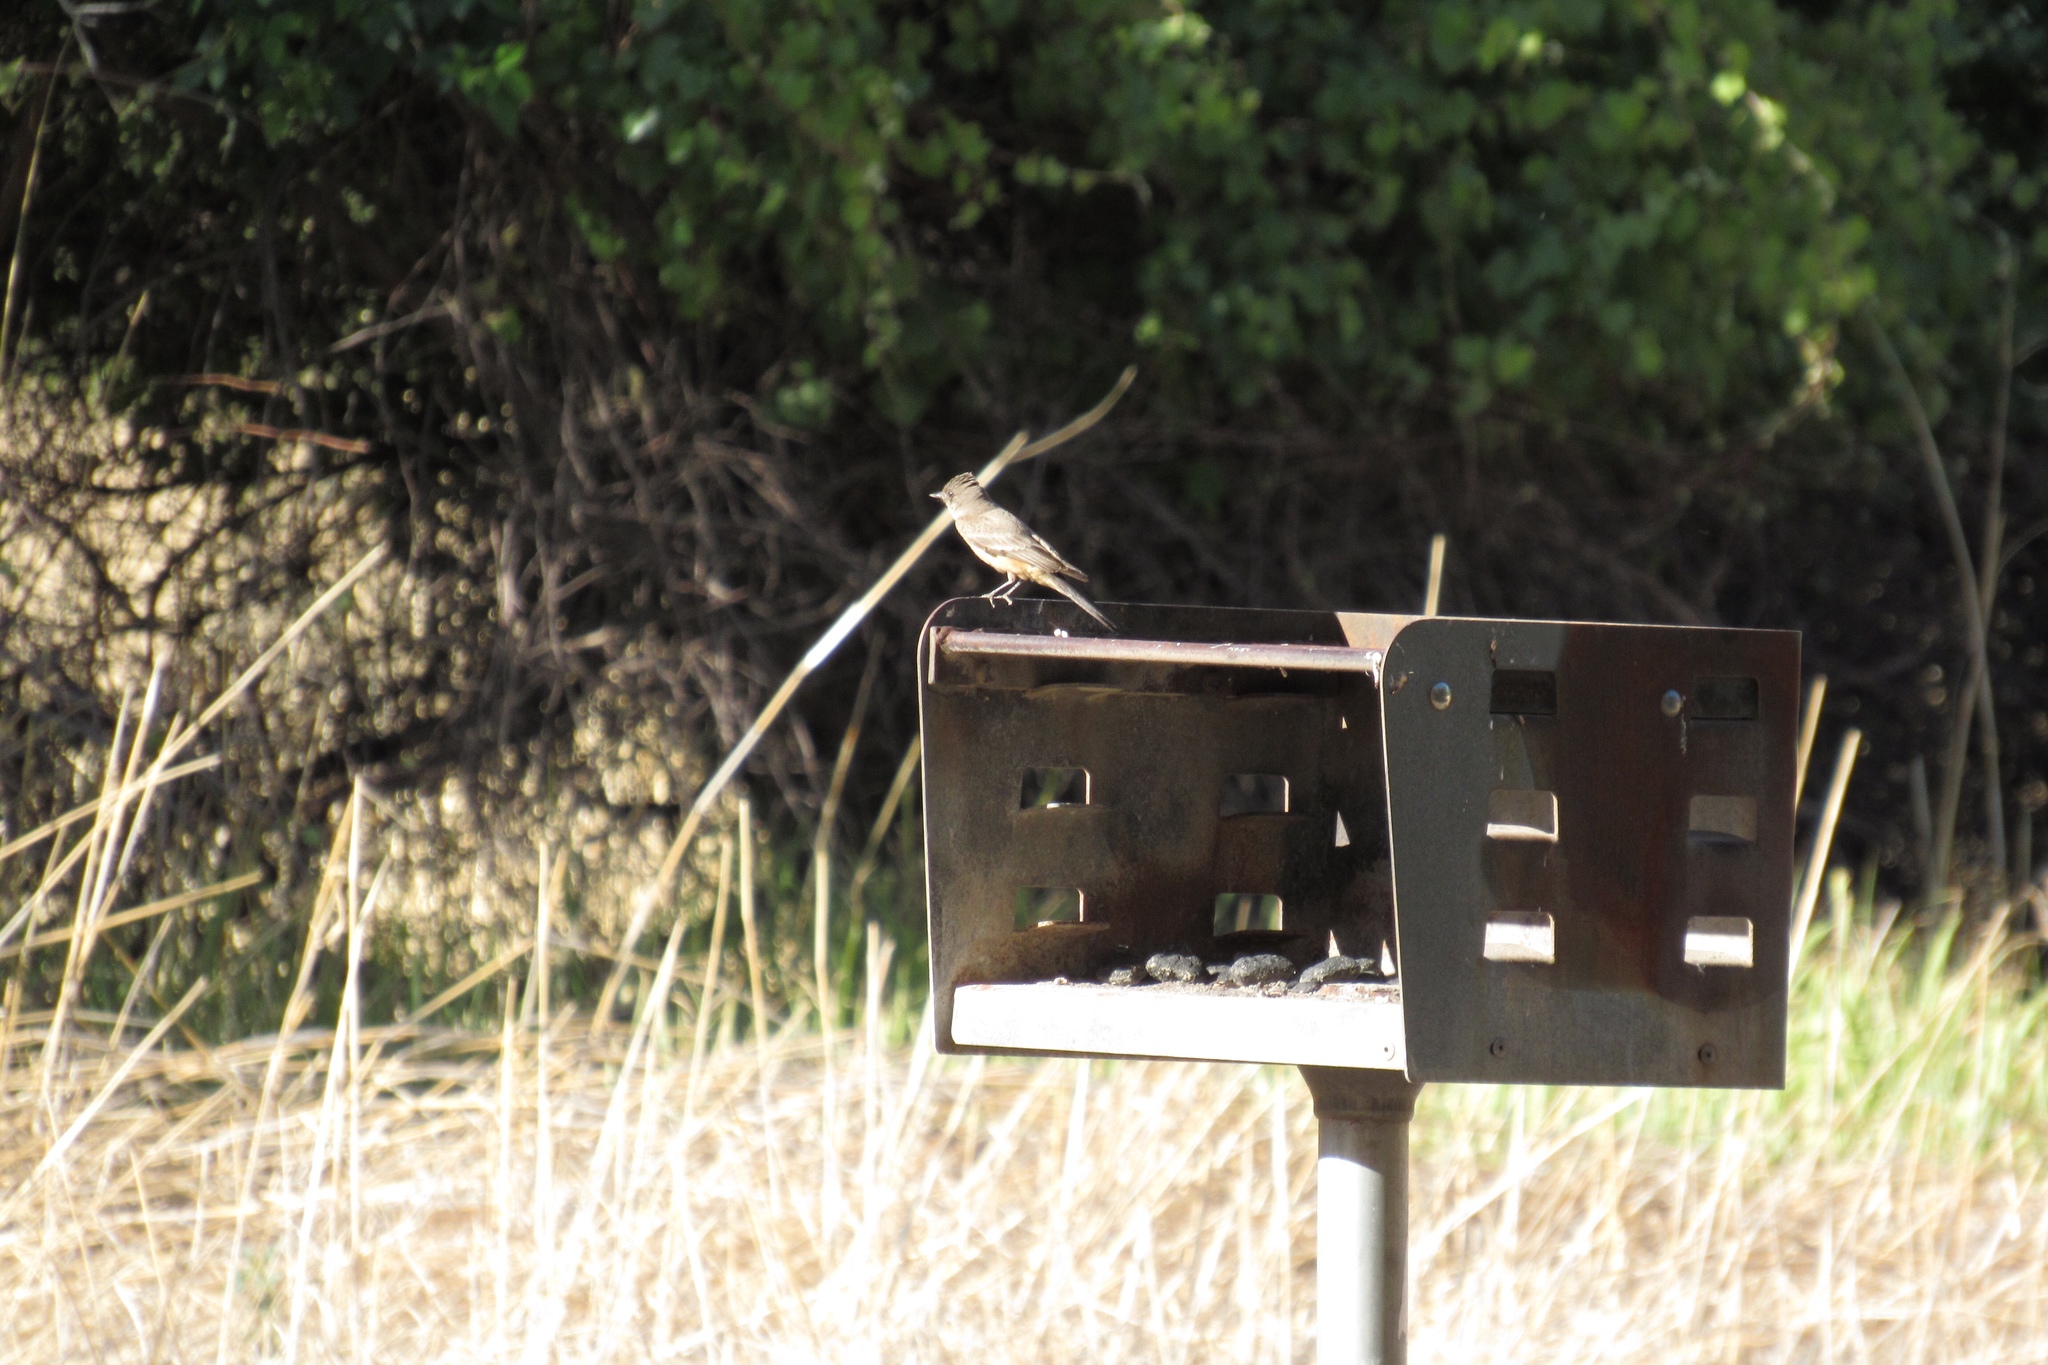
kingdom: Animalia
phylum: Chordata
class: Aves
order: Passeriformes
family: Tyrannidae
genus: Sayornis
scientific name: Sayornis saya
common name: Say's phoebe
